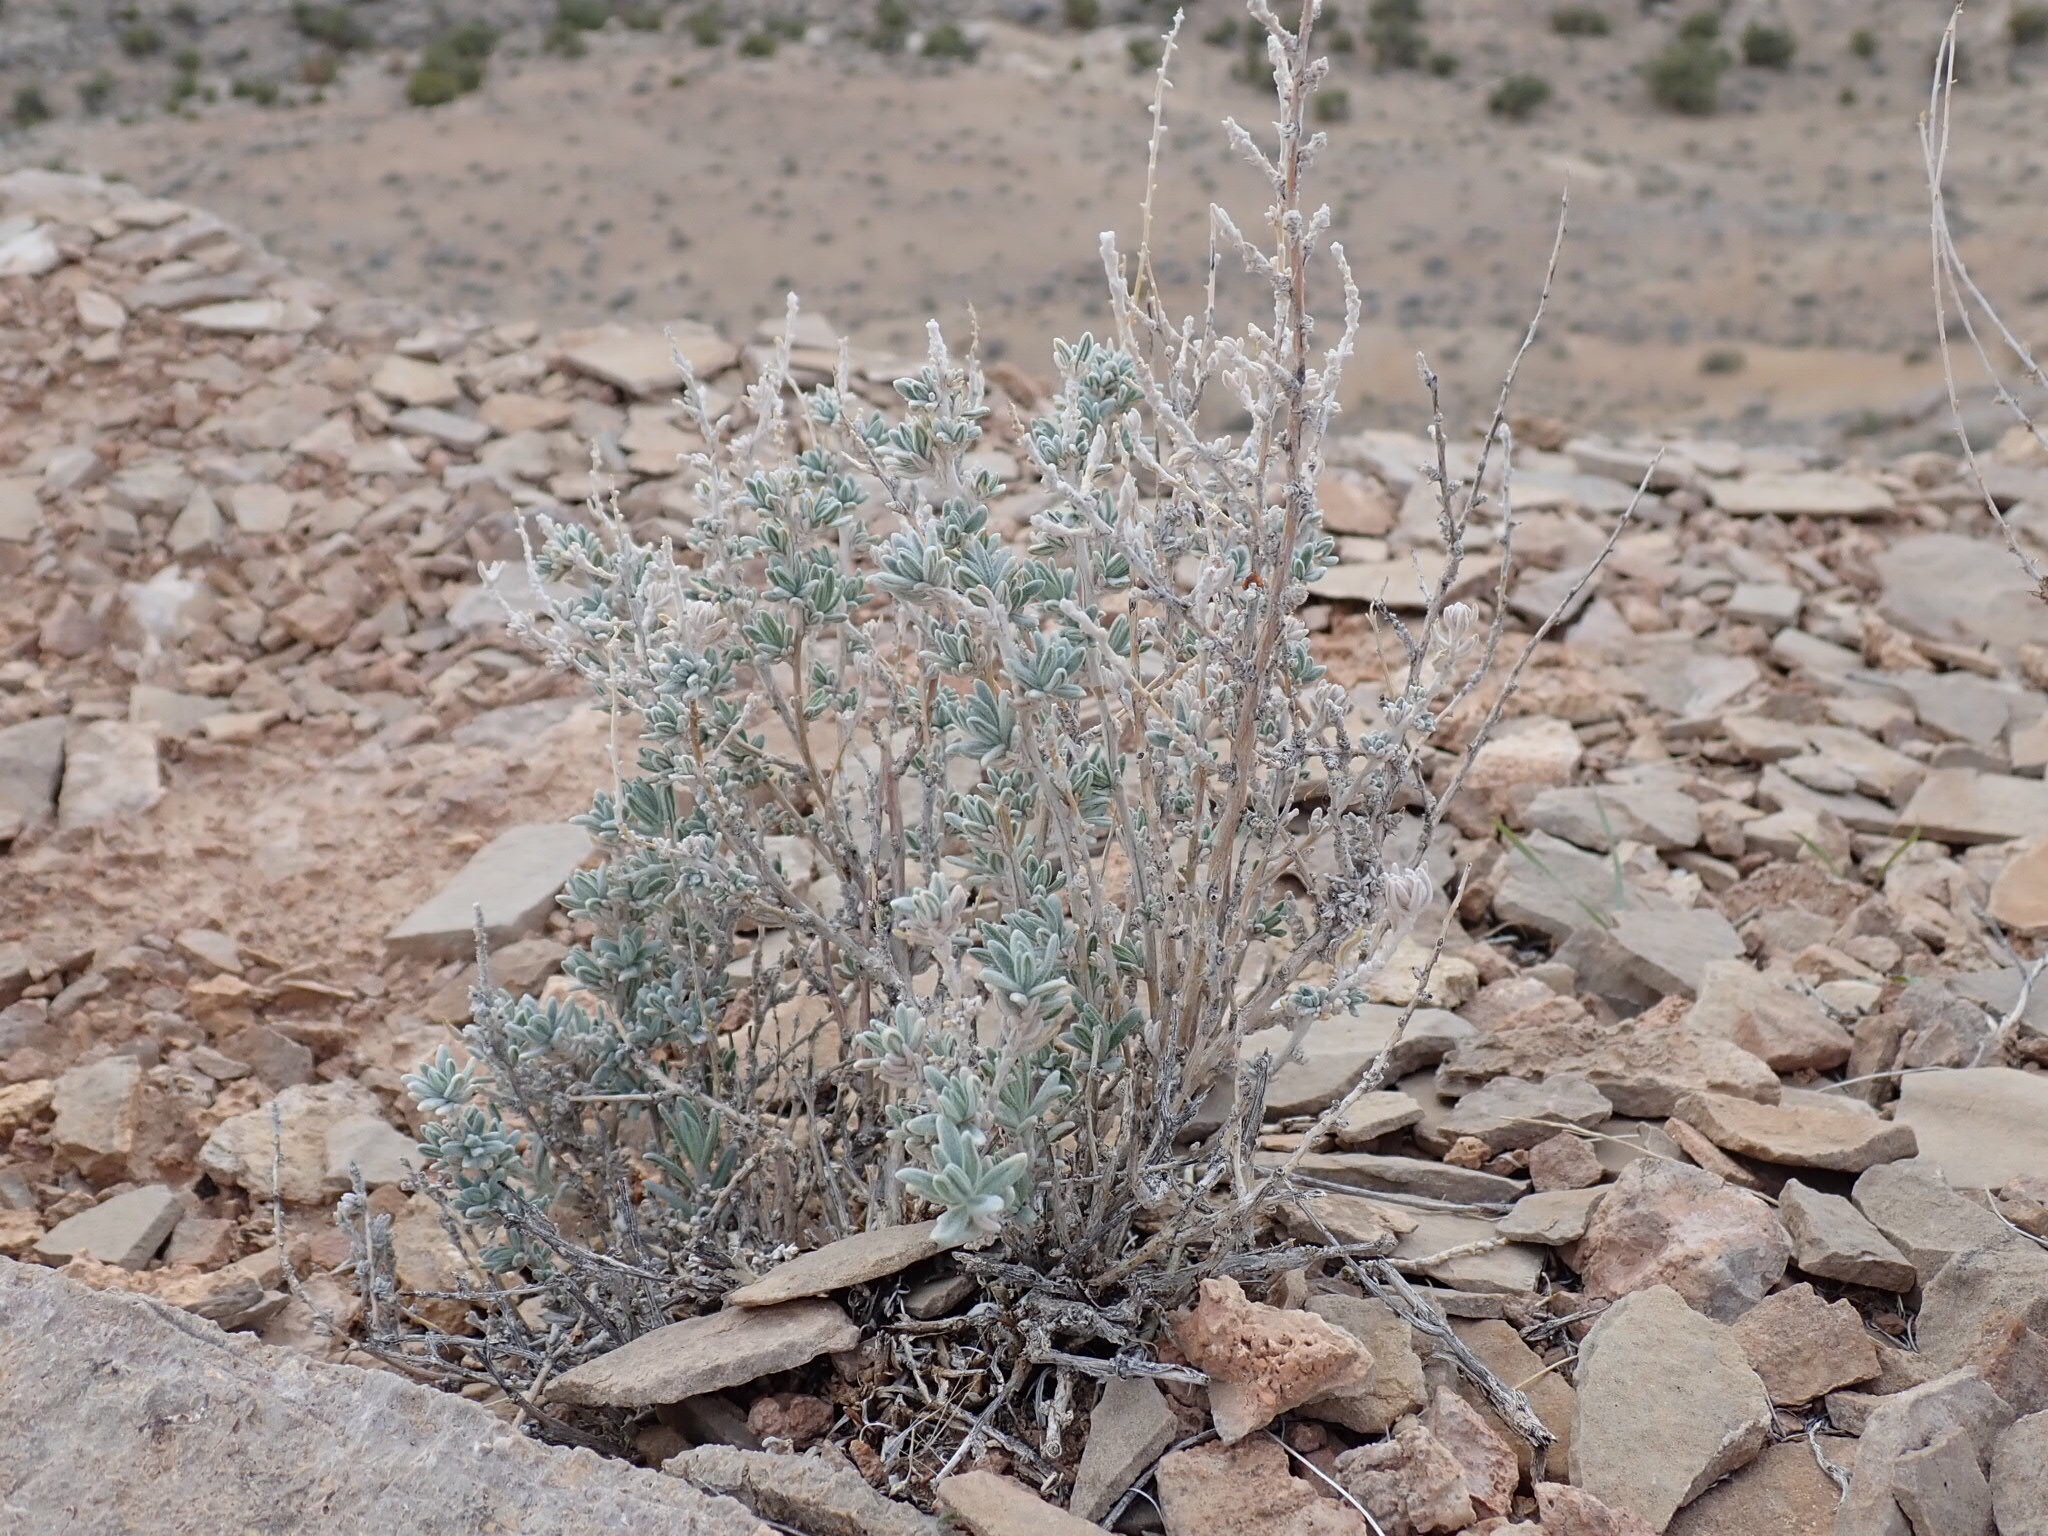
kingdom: Plantae
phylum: Tracheophyta
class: Magnoliopsida
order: Caryophyllales
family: Amaranthaceae
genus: Krascheninnikovia
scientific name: Krascheninnikovia lanata
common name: Winterfat
